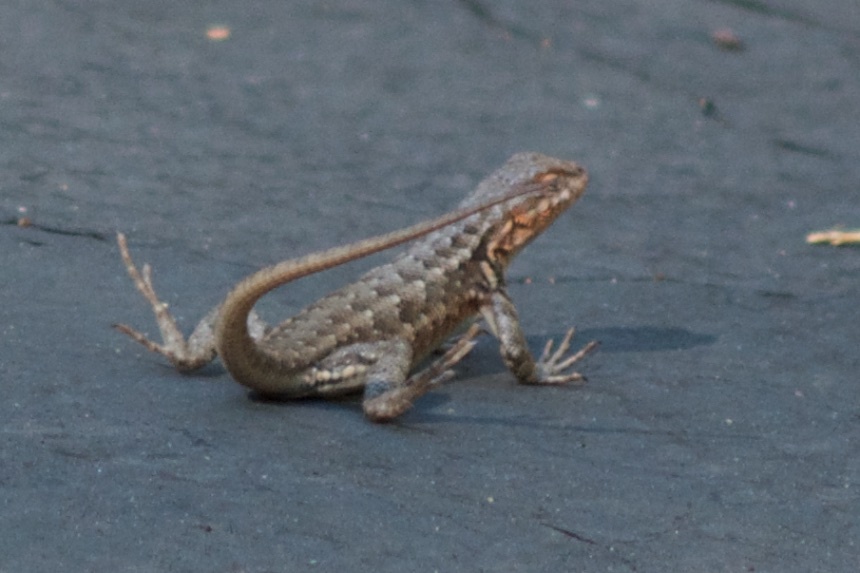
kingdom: Animalia
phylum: Chordata
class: Squamata
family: Phrynosomatidae
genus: Sceloporus
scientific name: Sceloporus graciosus
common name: Sagebrush lizard
